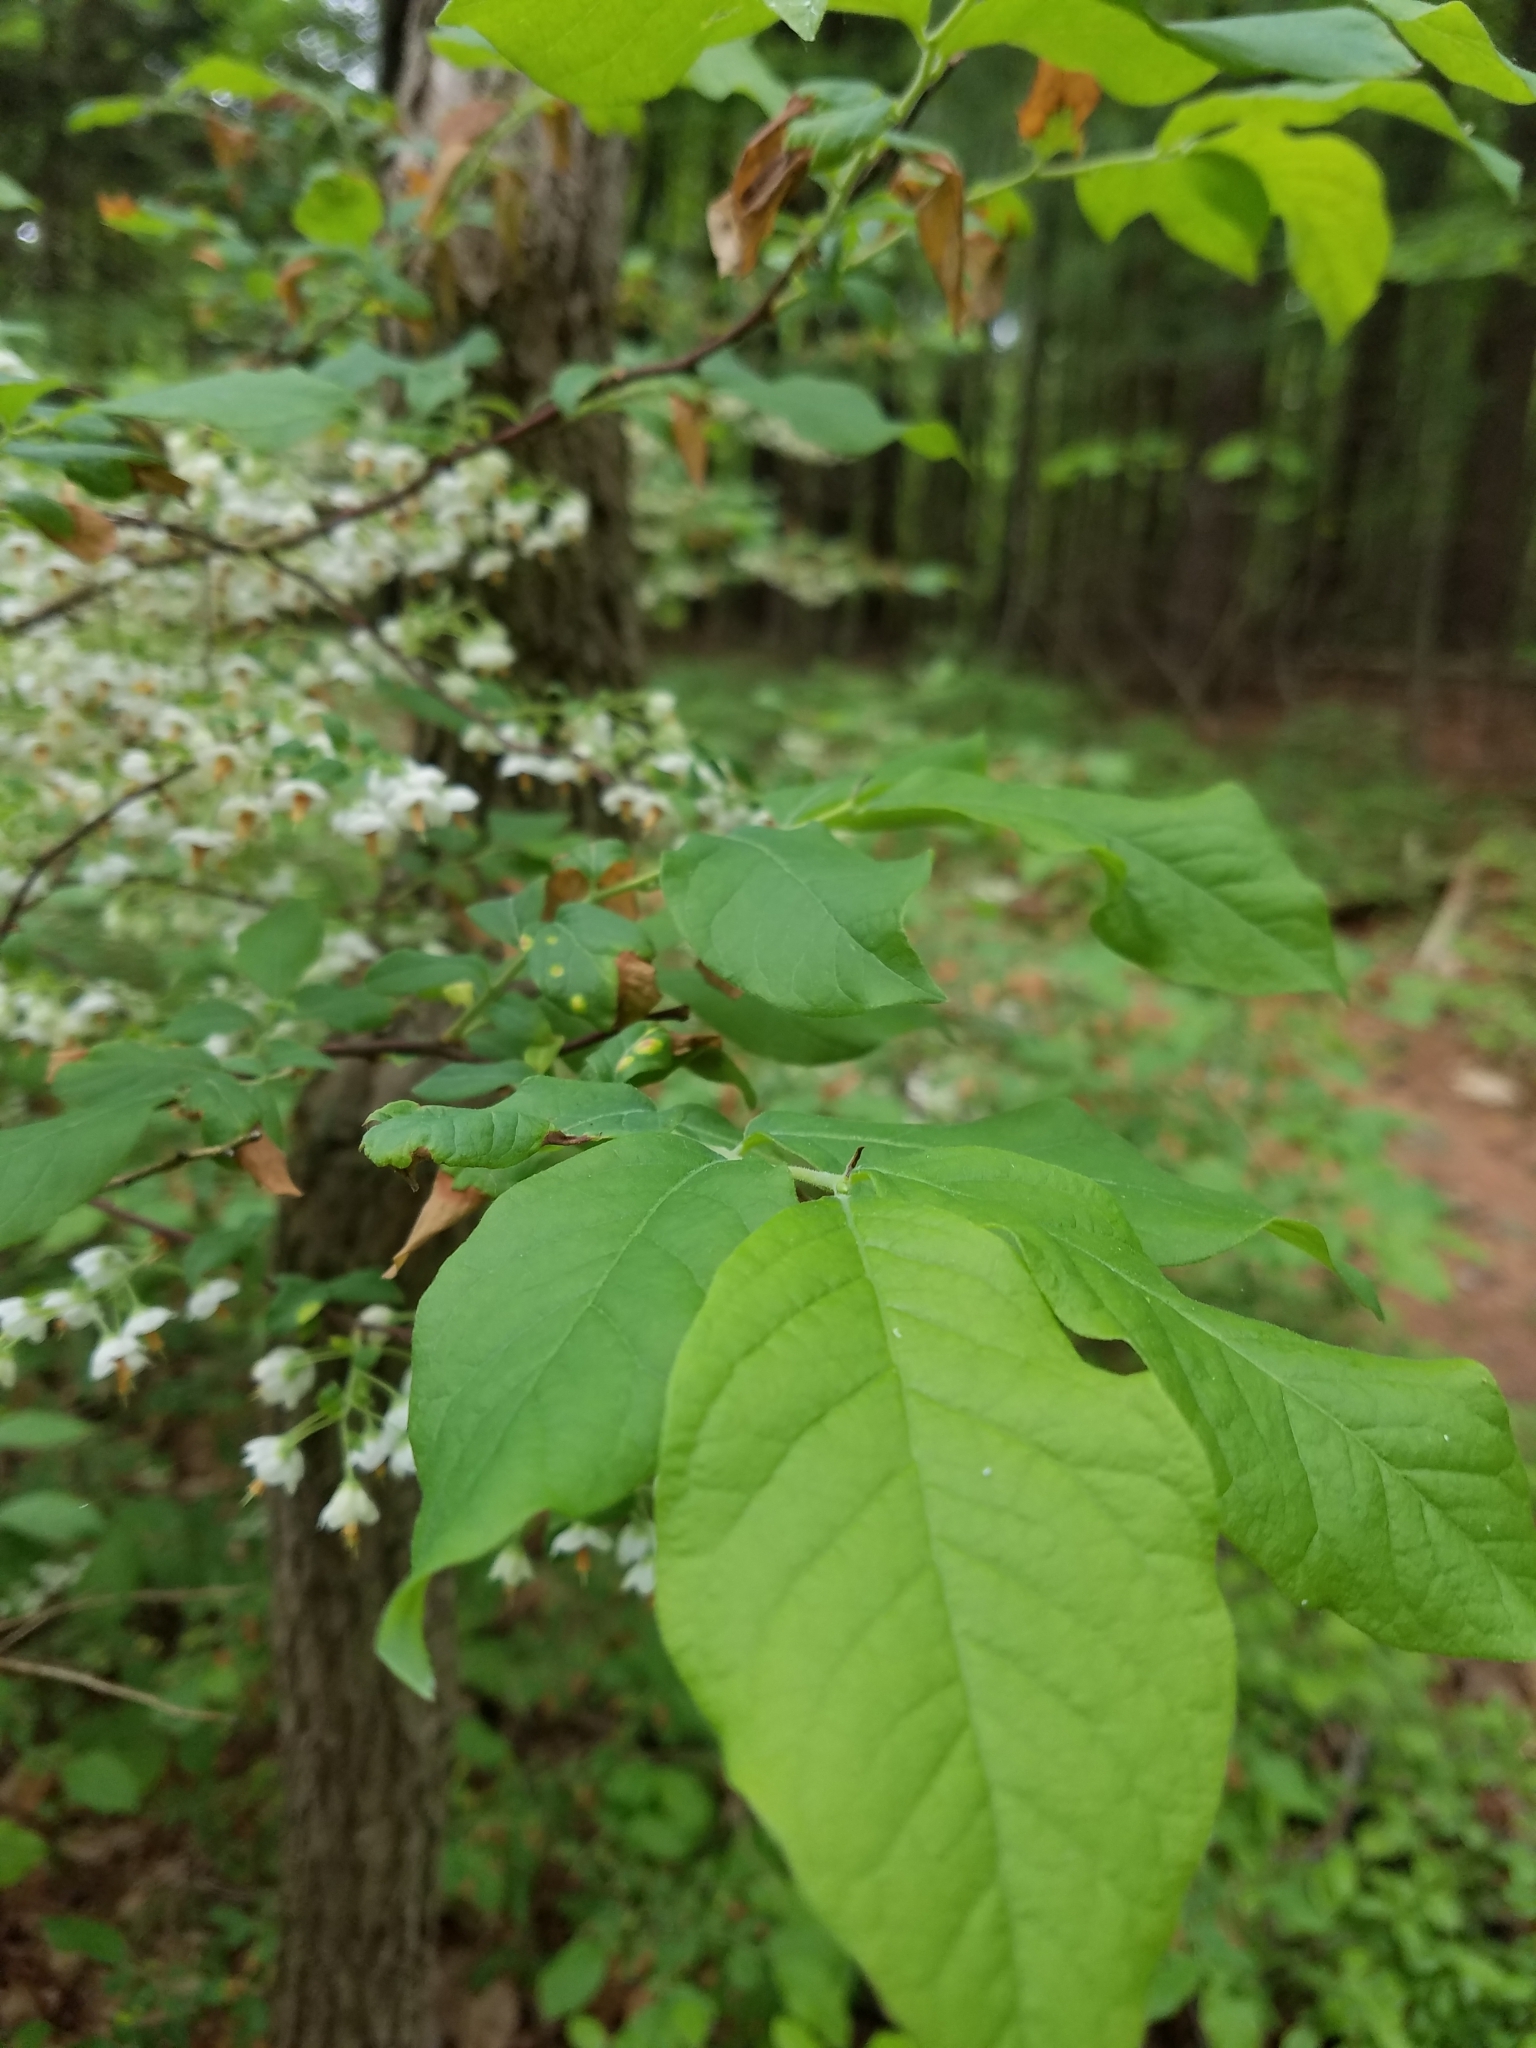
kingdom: Plantae
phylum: Tracheophyta
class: Magnoliopsida
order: Ericales
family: Ericaceae
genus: Vaccinium
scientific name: Vaccinium stamineum
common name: Deerberry
